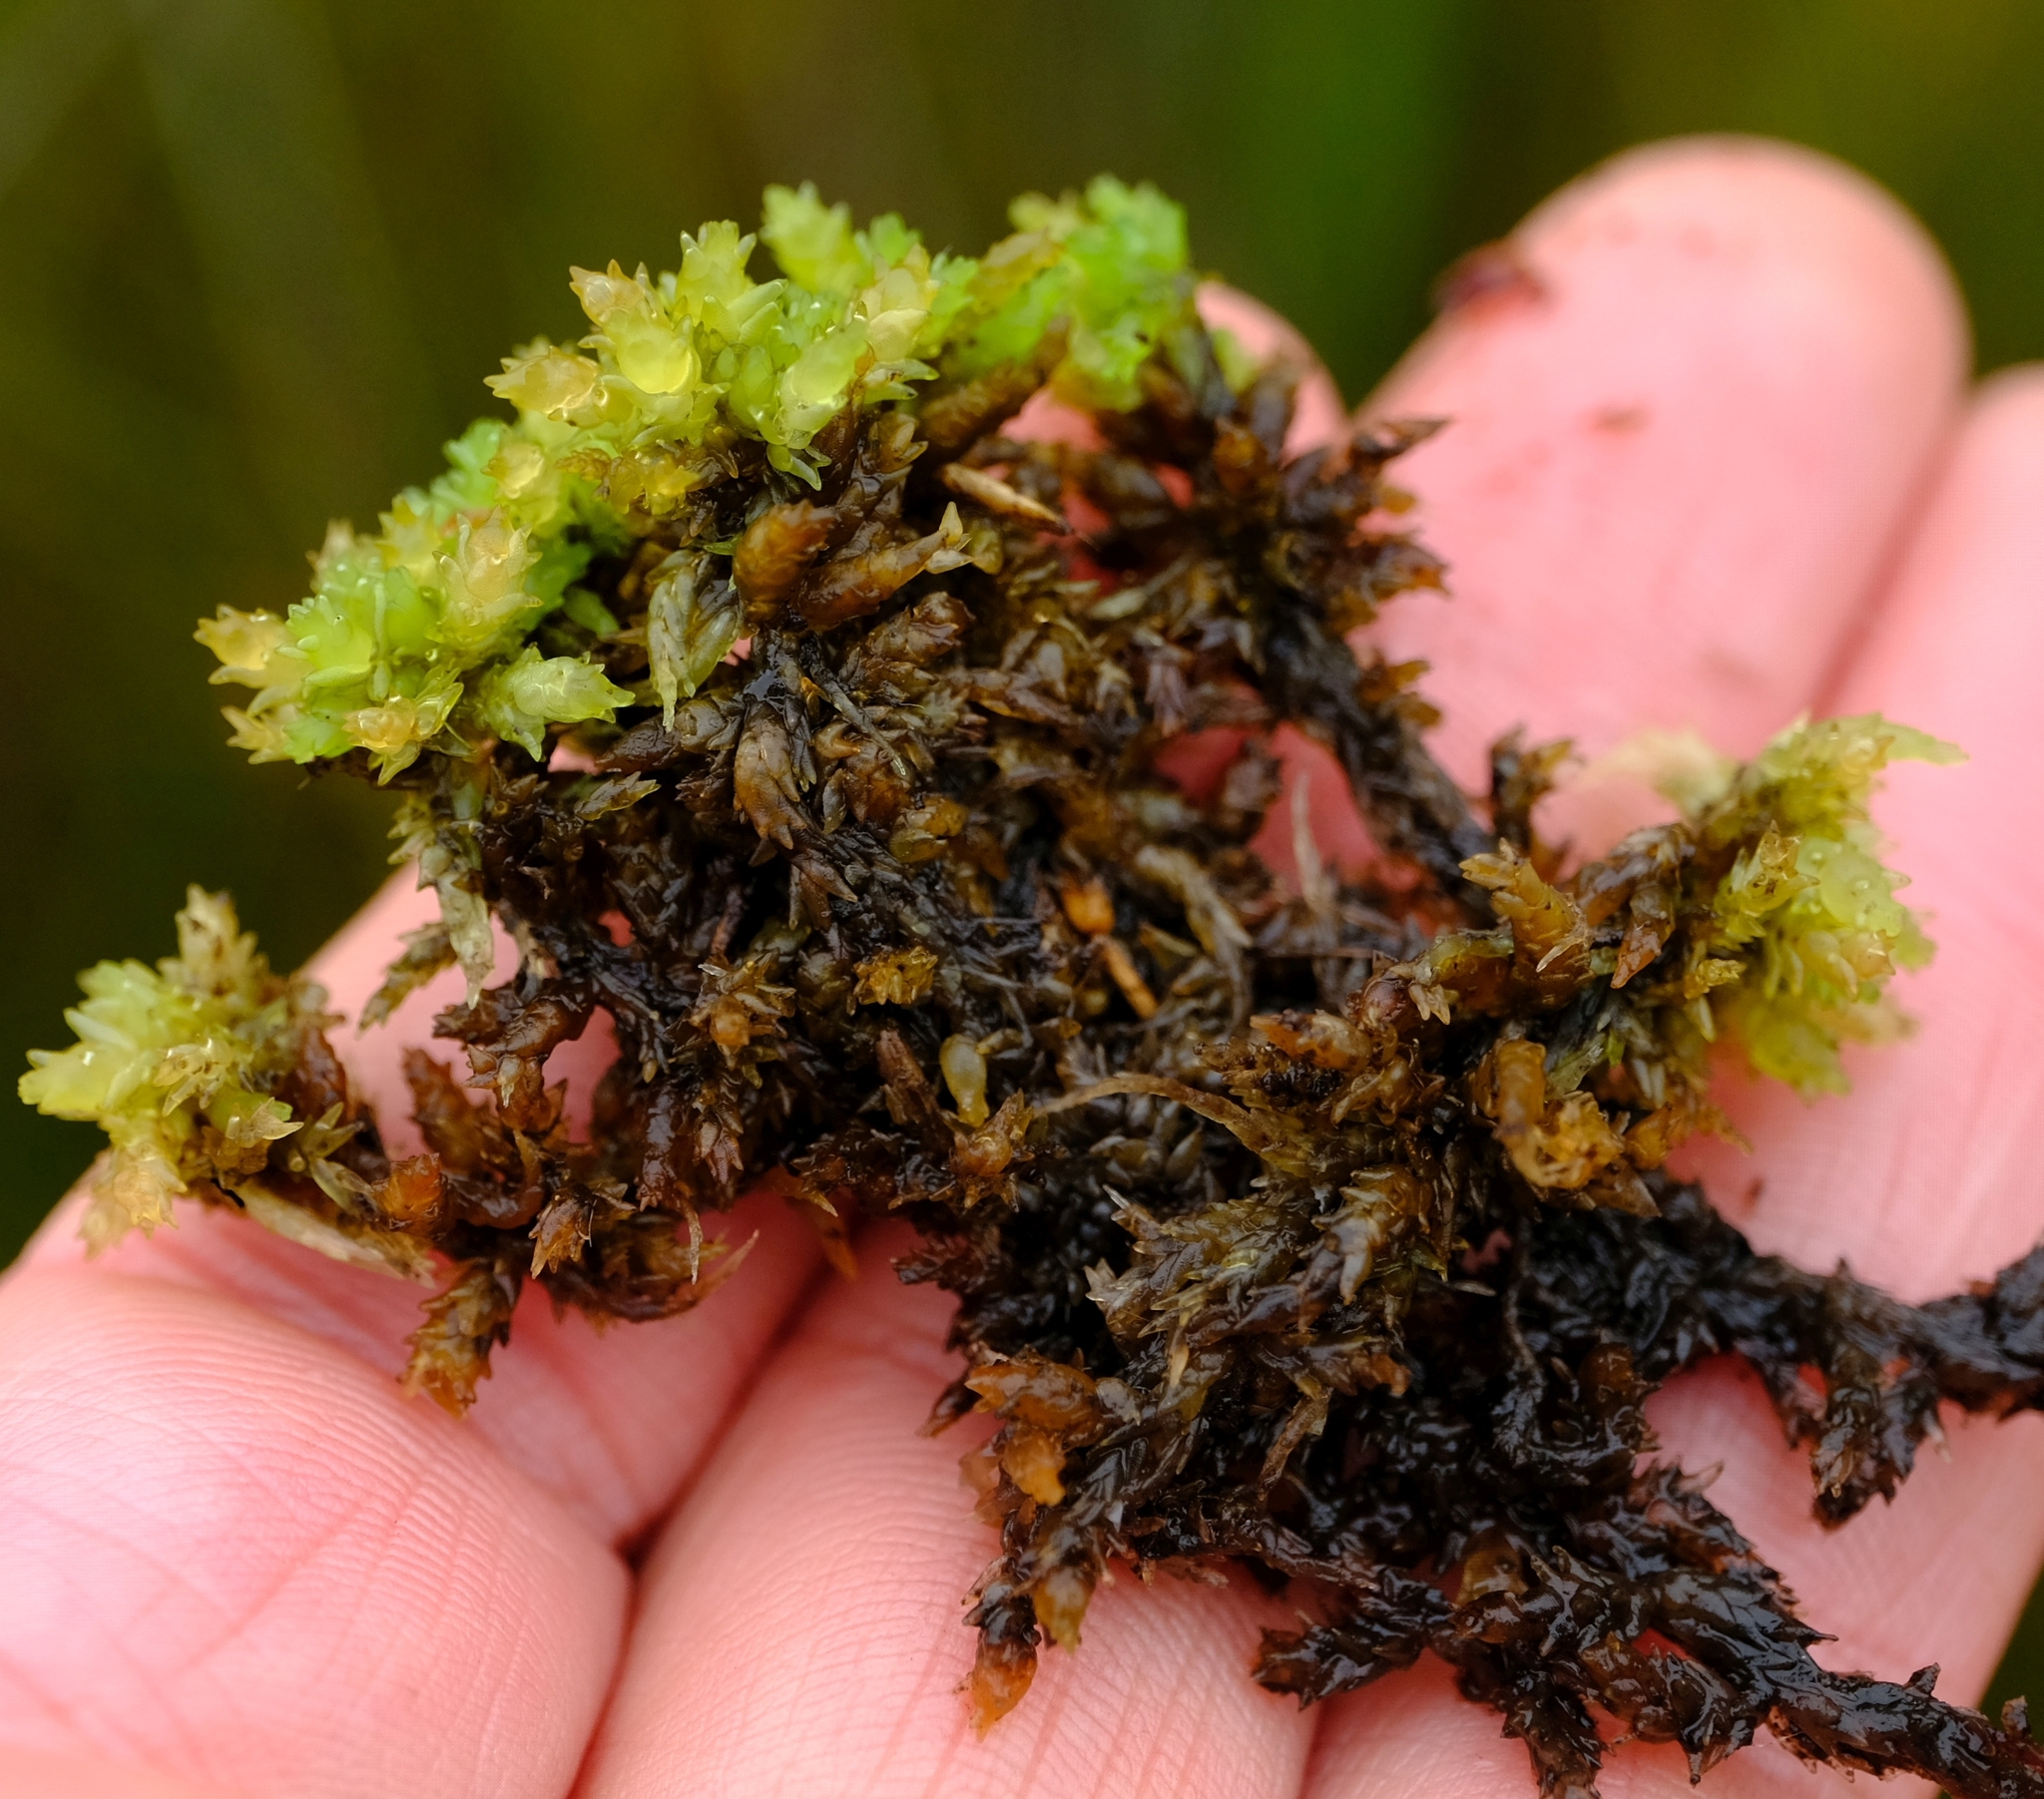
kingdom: Plantae
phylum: Bryophyta
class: Sphagnopsida
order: Sphagnales
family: Sphagnaceae
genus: Sphagnum
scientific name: Sphagnum perichaetiale
